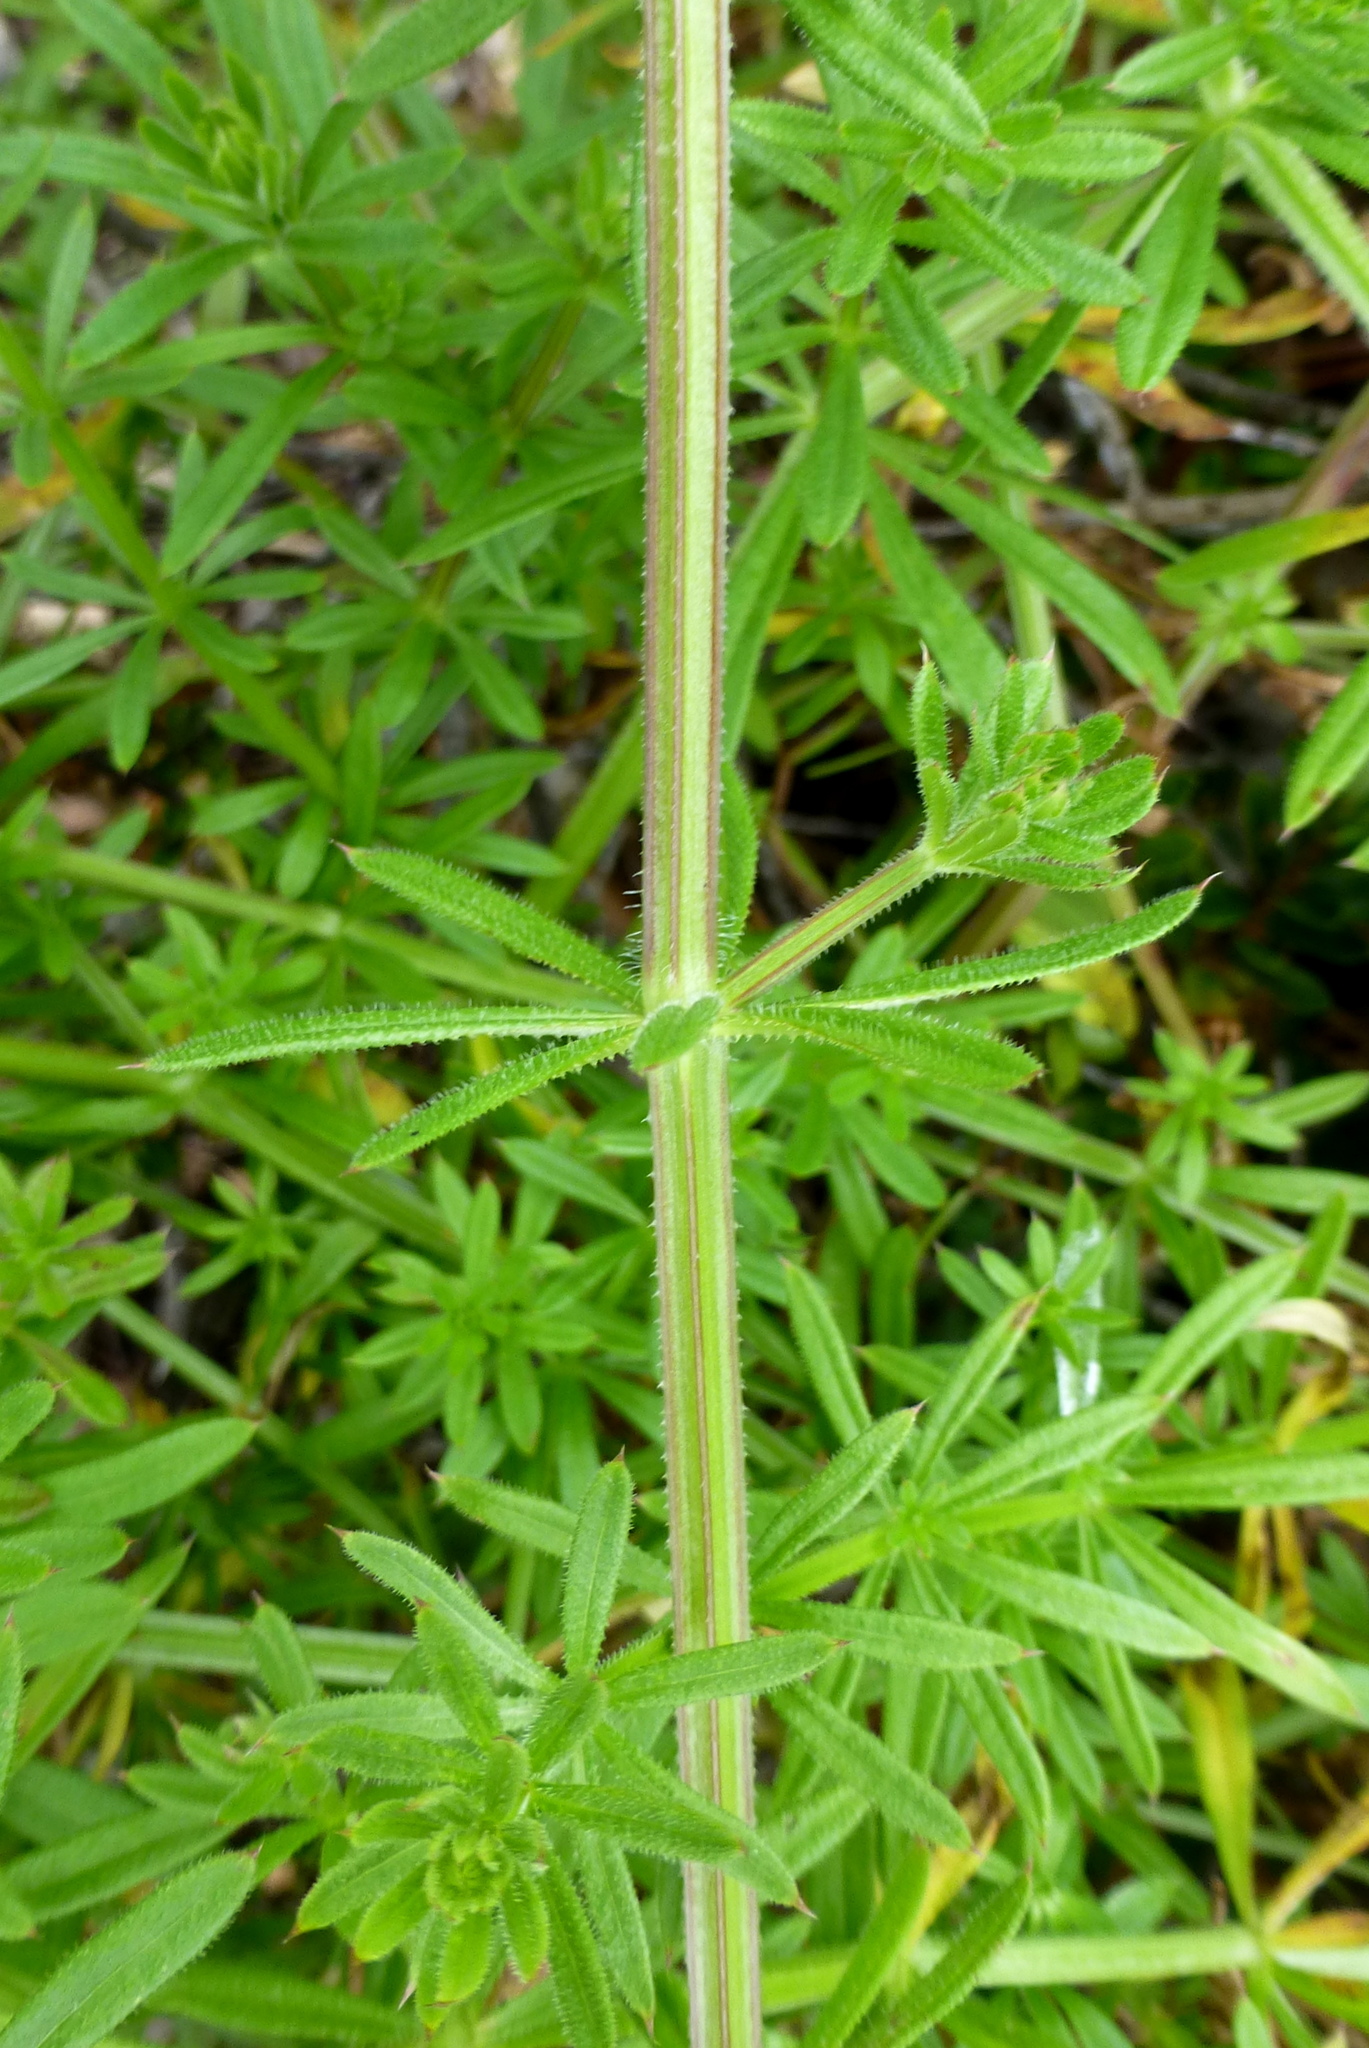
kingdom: Plantae
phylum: Tracheophyta
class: Magnoliopsida
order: Gentianales
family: Rubiaceae
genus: Galium
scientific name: Galium aparine
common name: Cleavers
